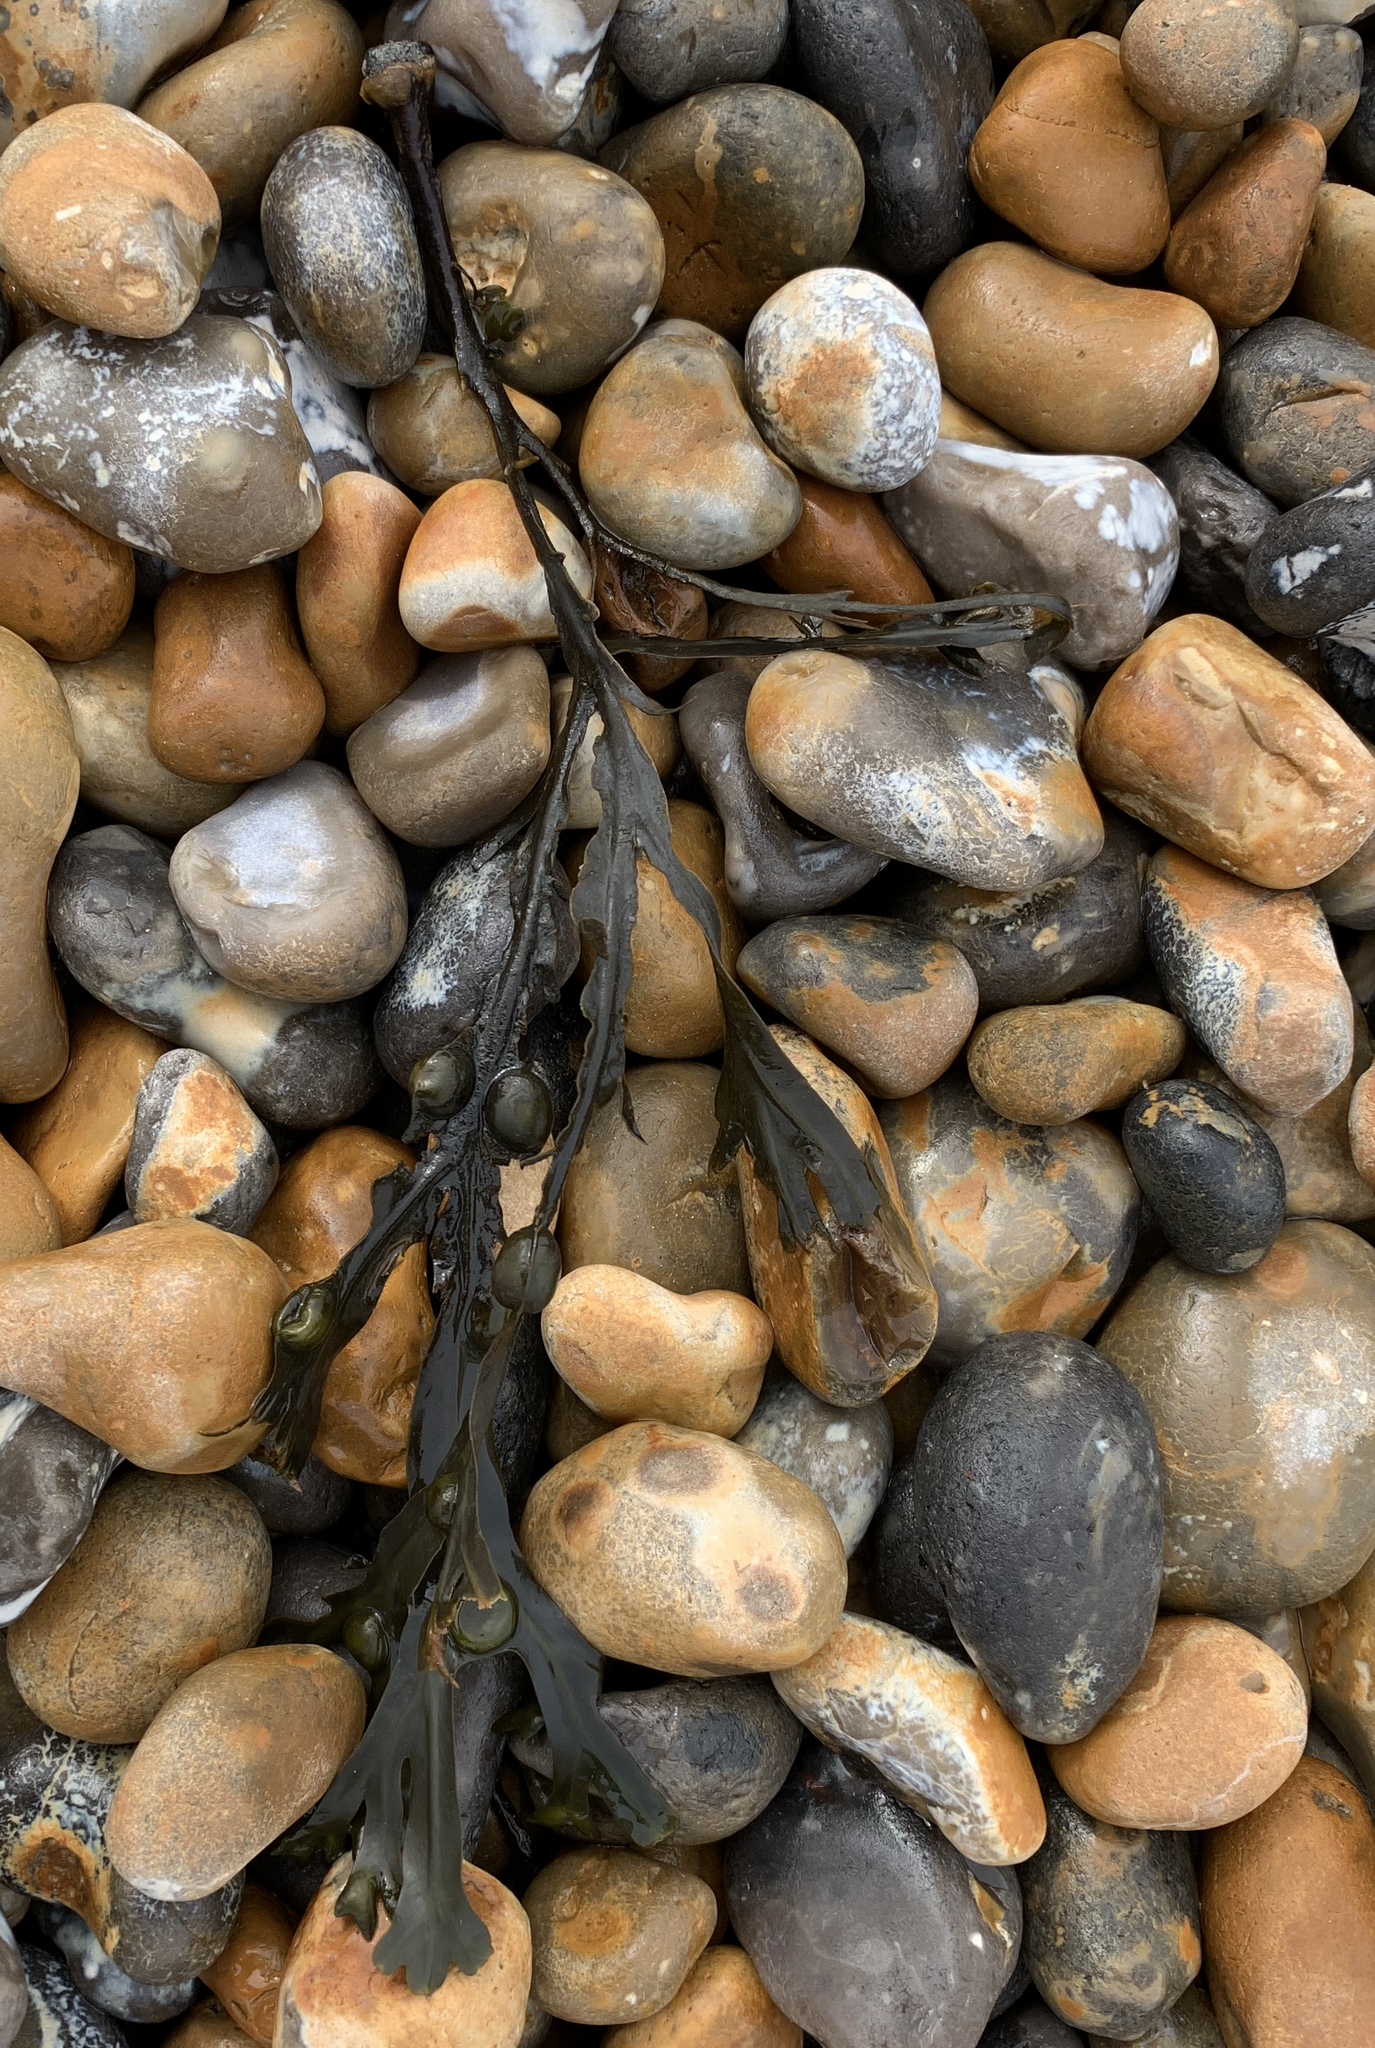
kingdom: Chromista
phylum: Ochrophyta
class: Phaeophyceae
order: Fucales
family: Fucaceae
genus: Fucus
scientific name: Fucus vesiculosus
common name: Bladder wrack
